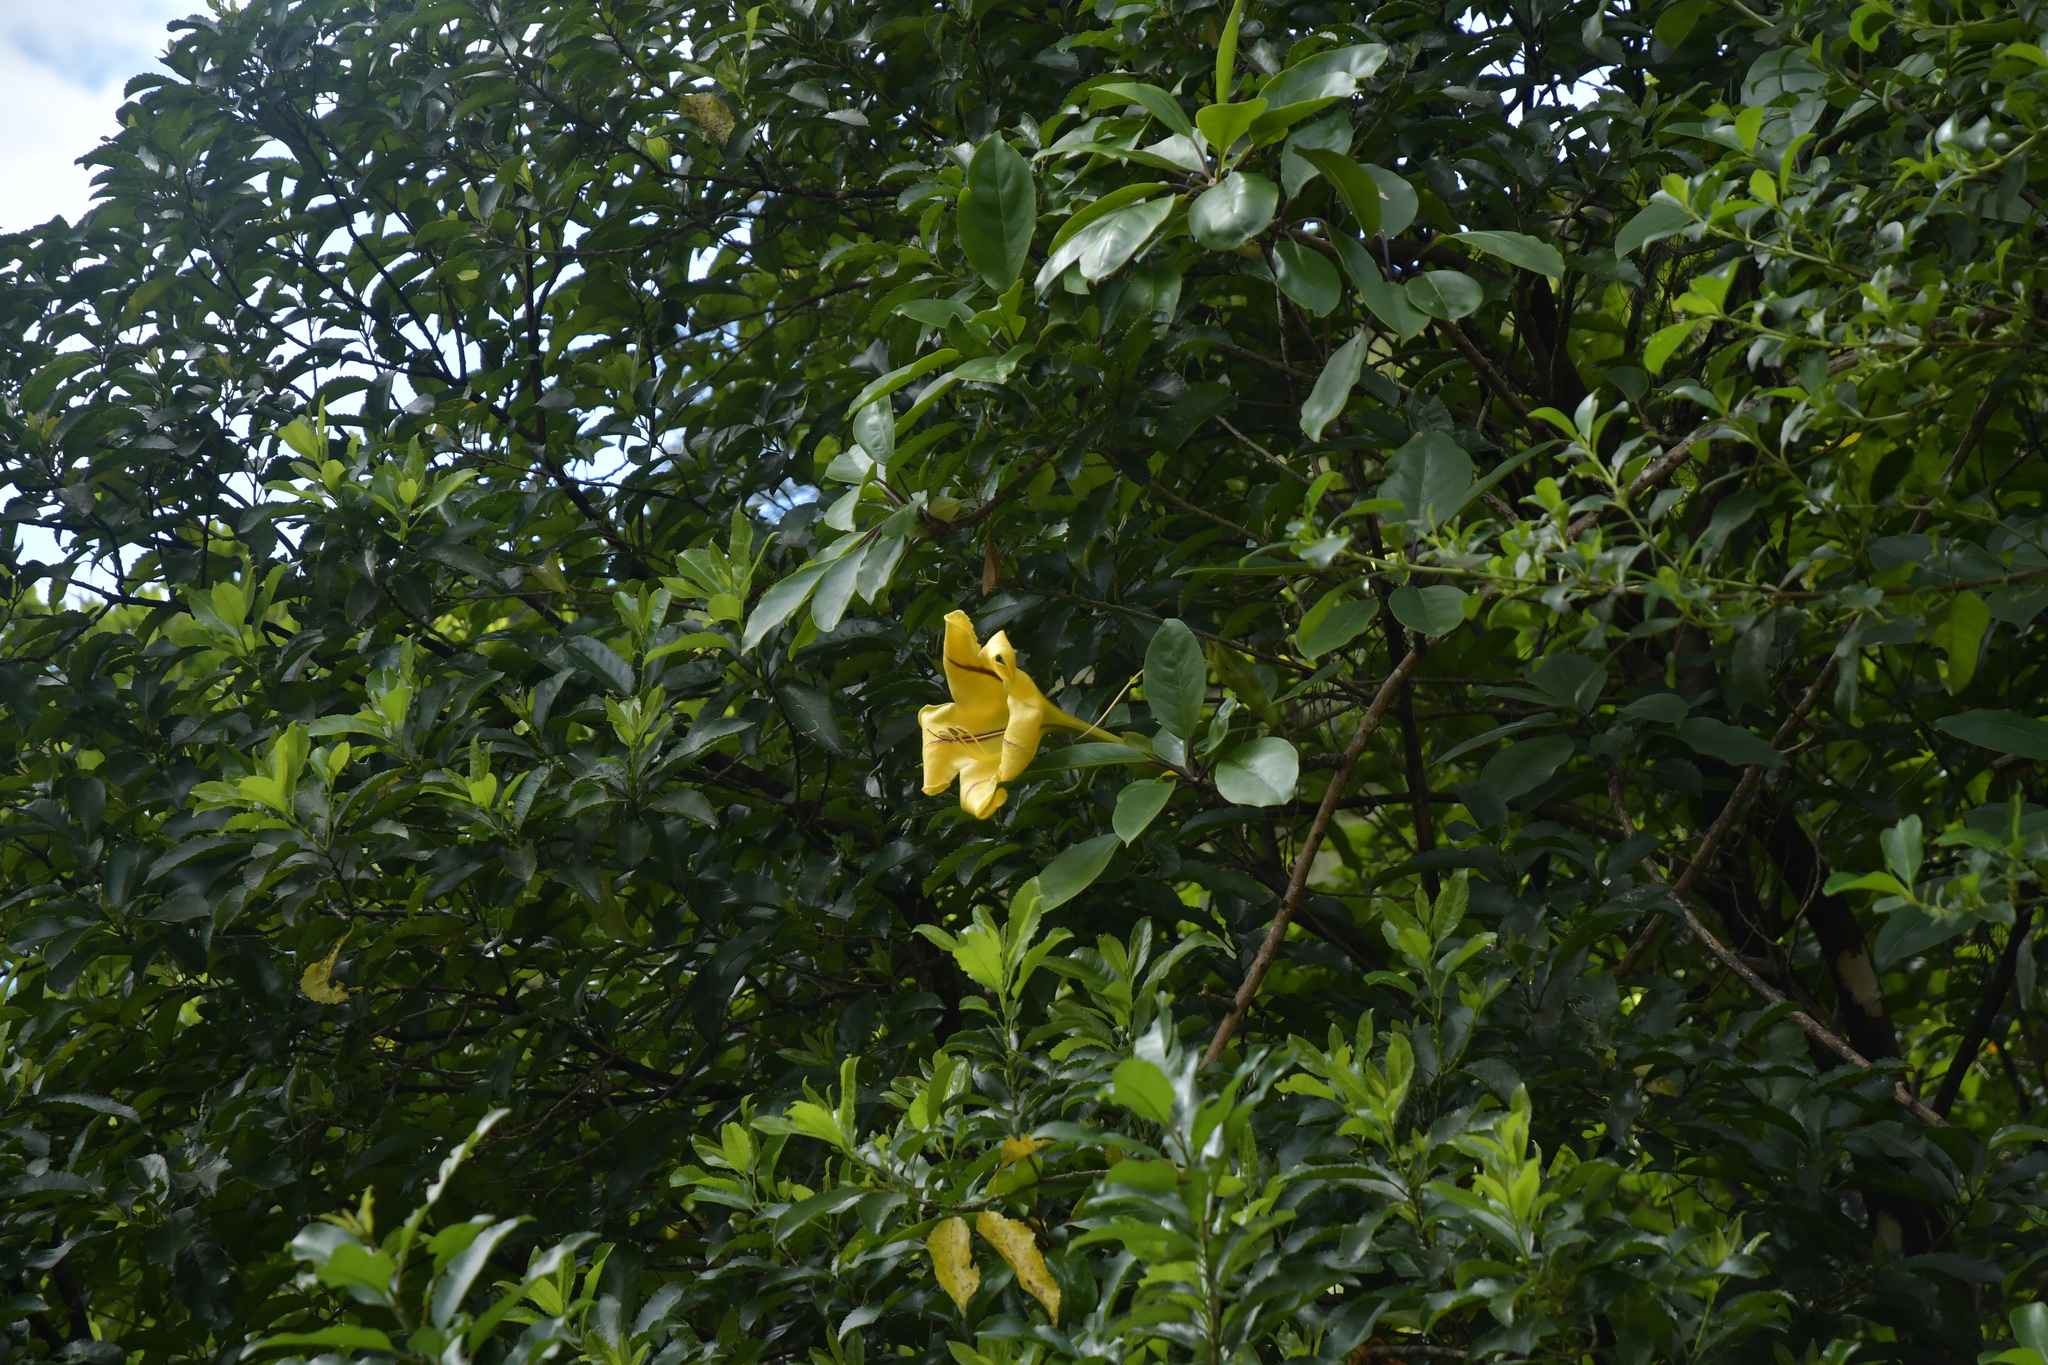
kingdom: Plantae
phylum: Tracheophyta
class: Magnoliopsida
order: Solanales
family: Solanaceae
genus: Solandra
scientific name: Solandra maxima
